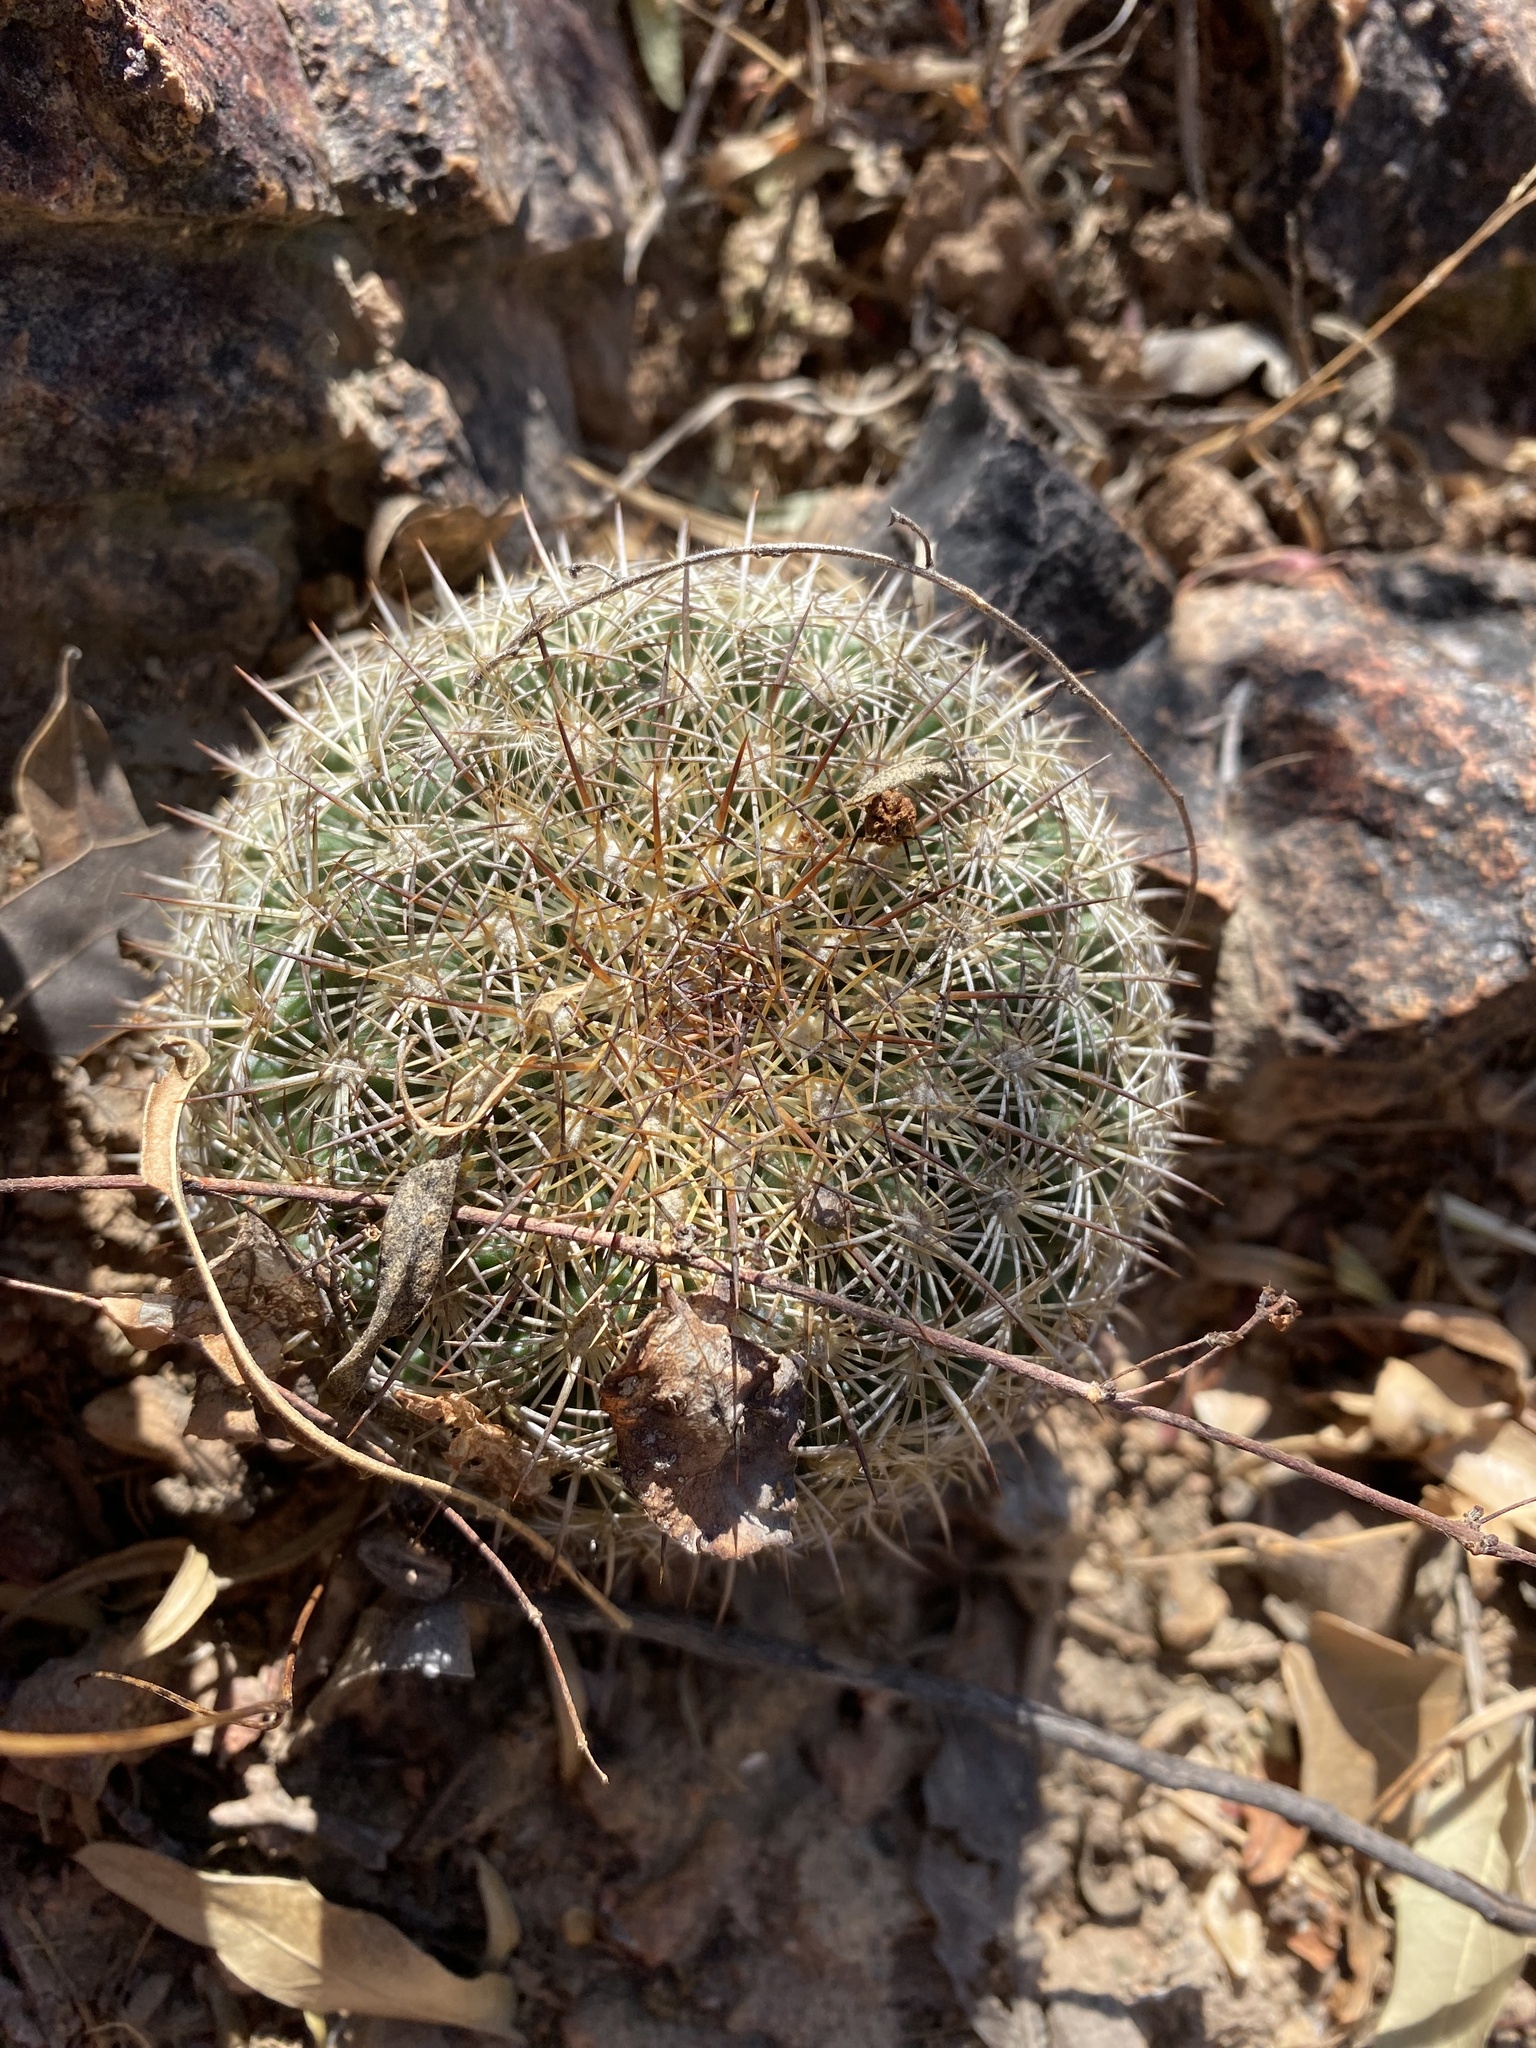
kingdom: Plantae
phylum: Tracheophyta
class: Magnoliopsida
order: Caryophyllales
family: Cactaceae
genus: Coryphantha
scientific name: Coryphantha recurvata
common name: Golden chested beehive
